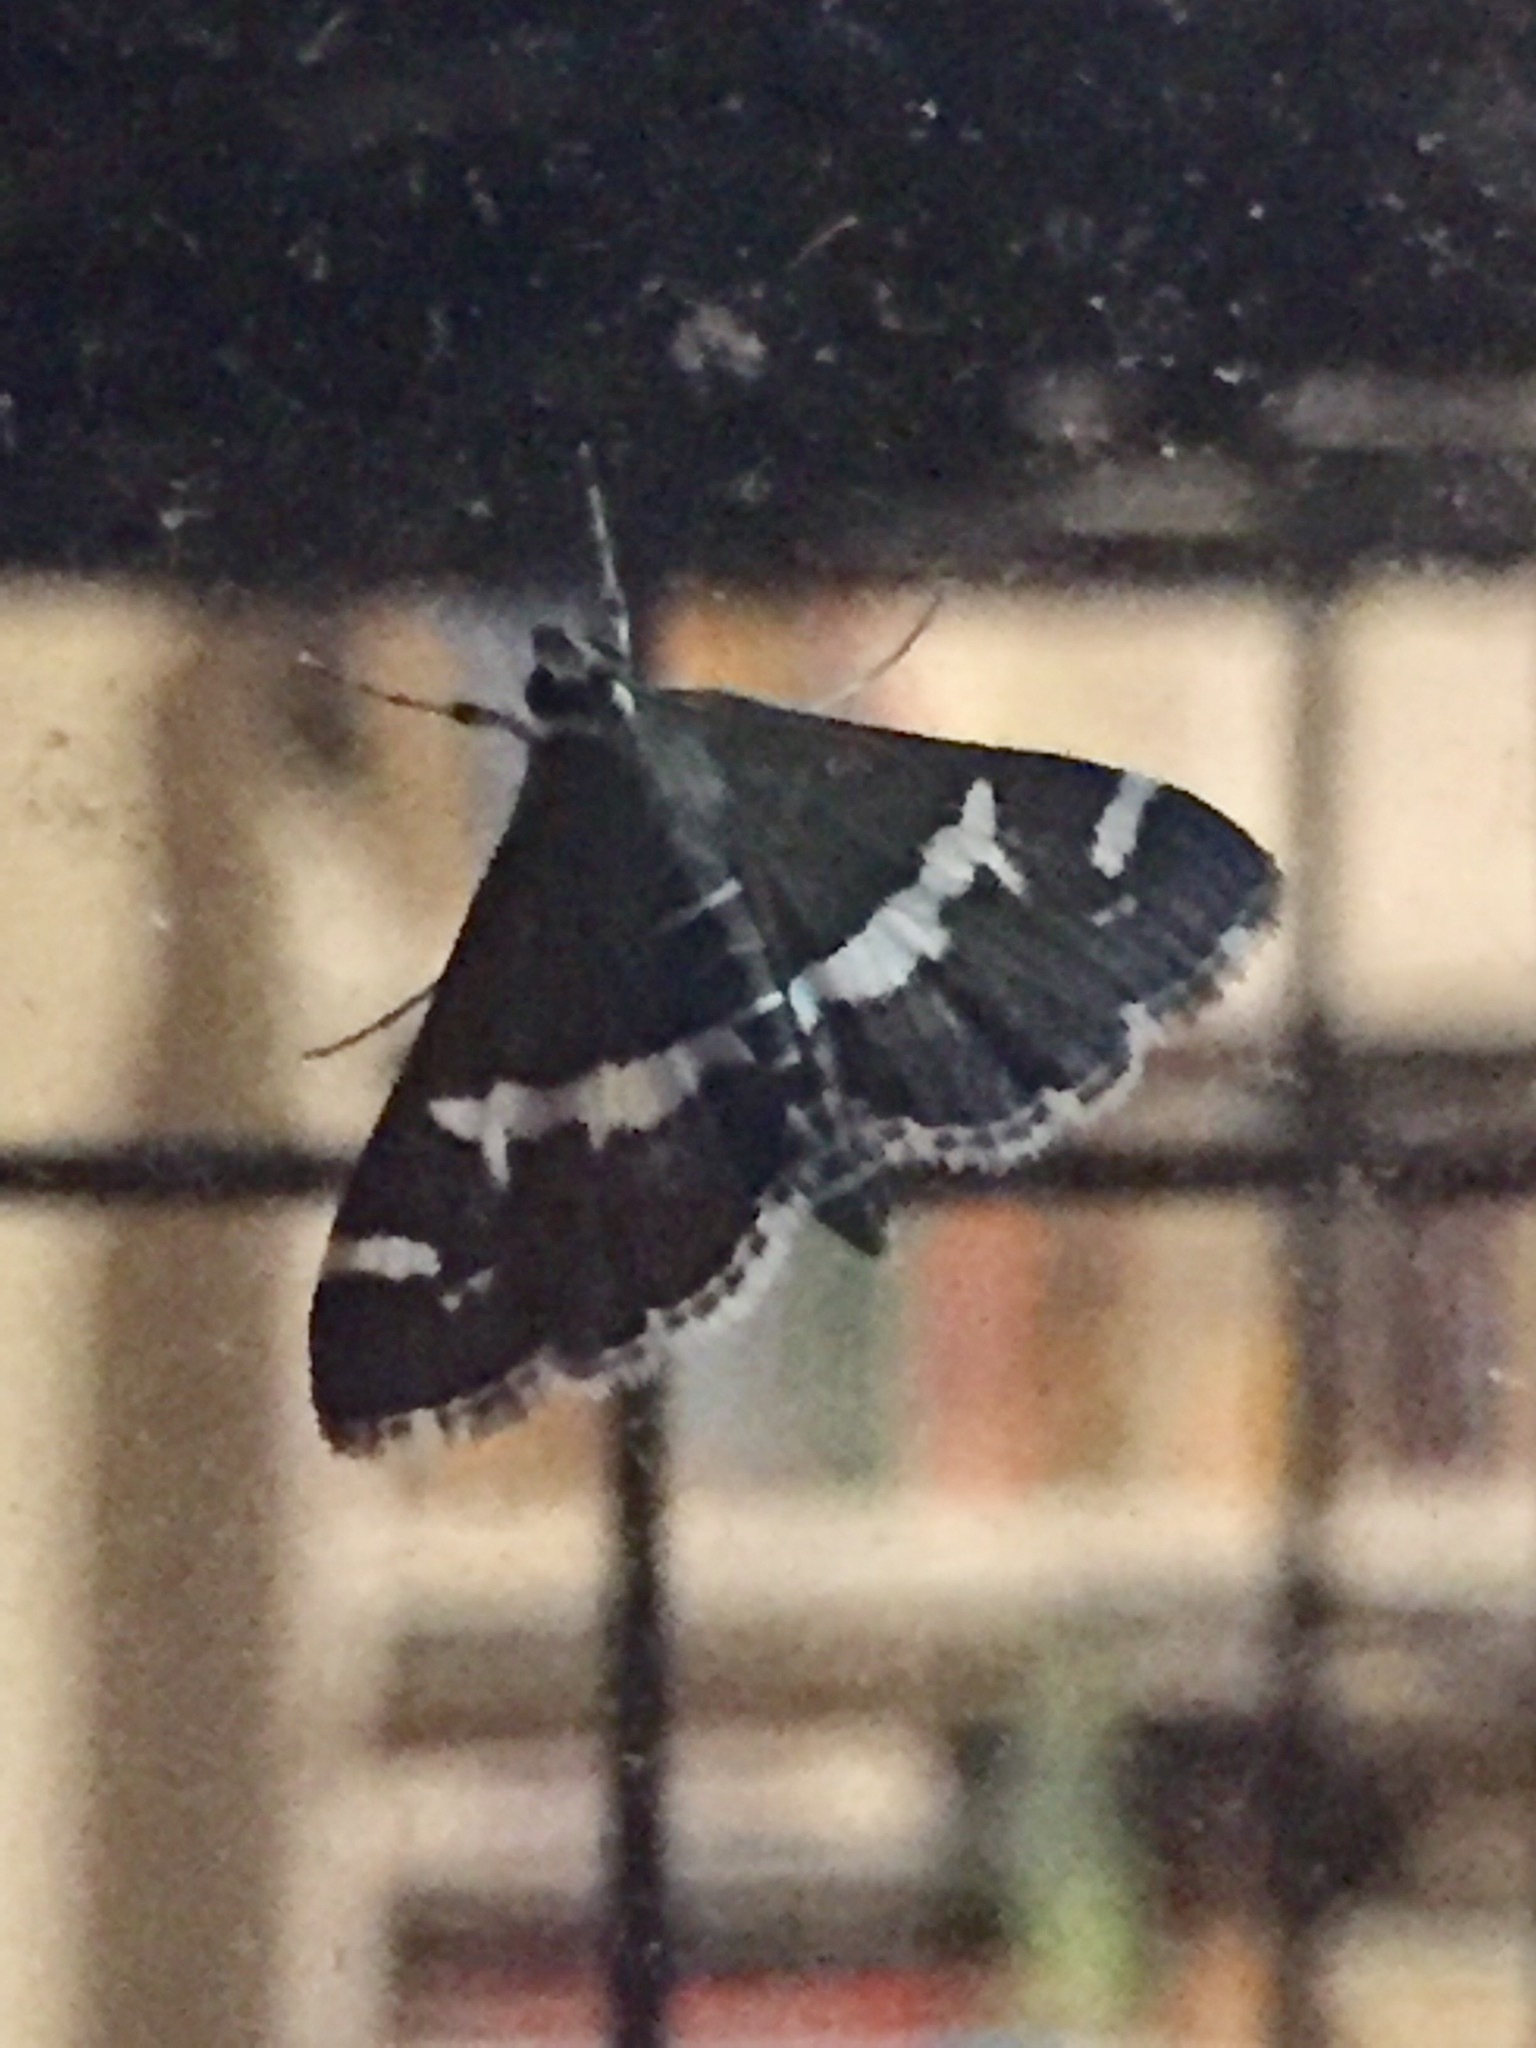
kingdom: Animalia
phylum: Arthropoda
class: Insecta
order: Lepidoptera
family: Crambidae
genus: Spoladea
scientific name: Spoladea recurvalis
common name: Beet webworm moth
